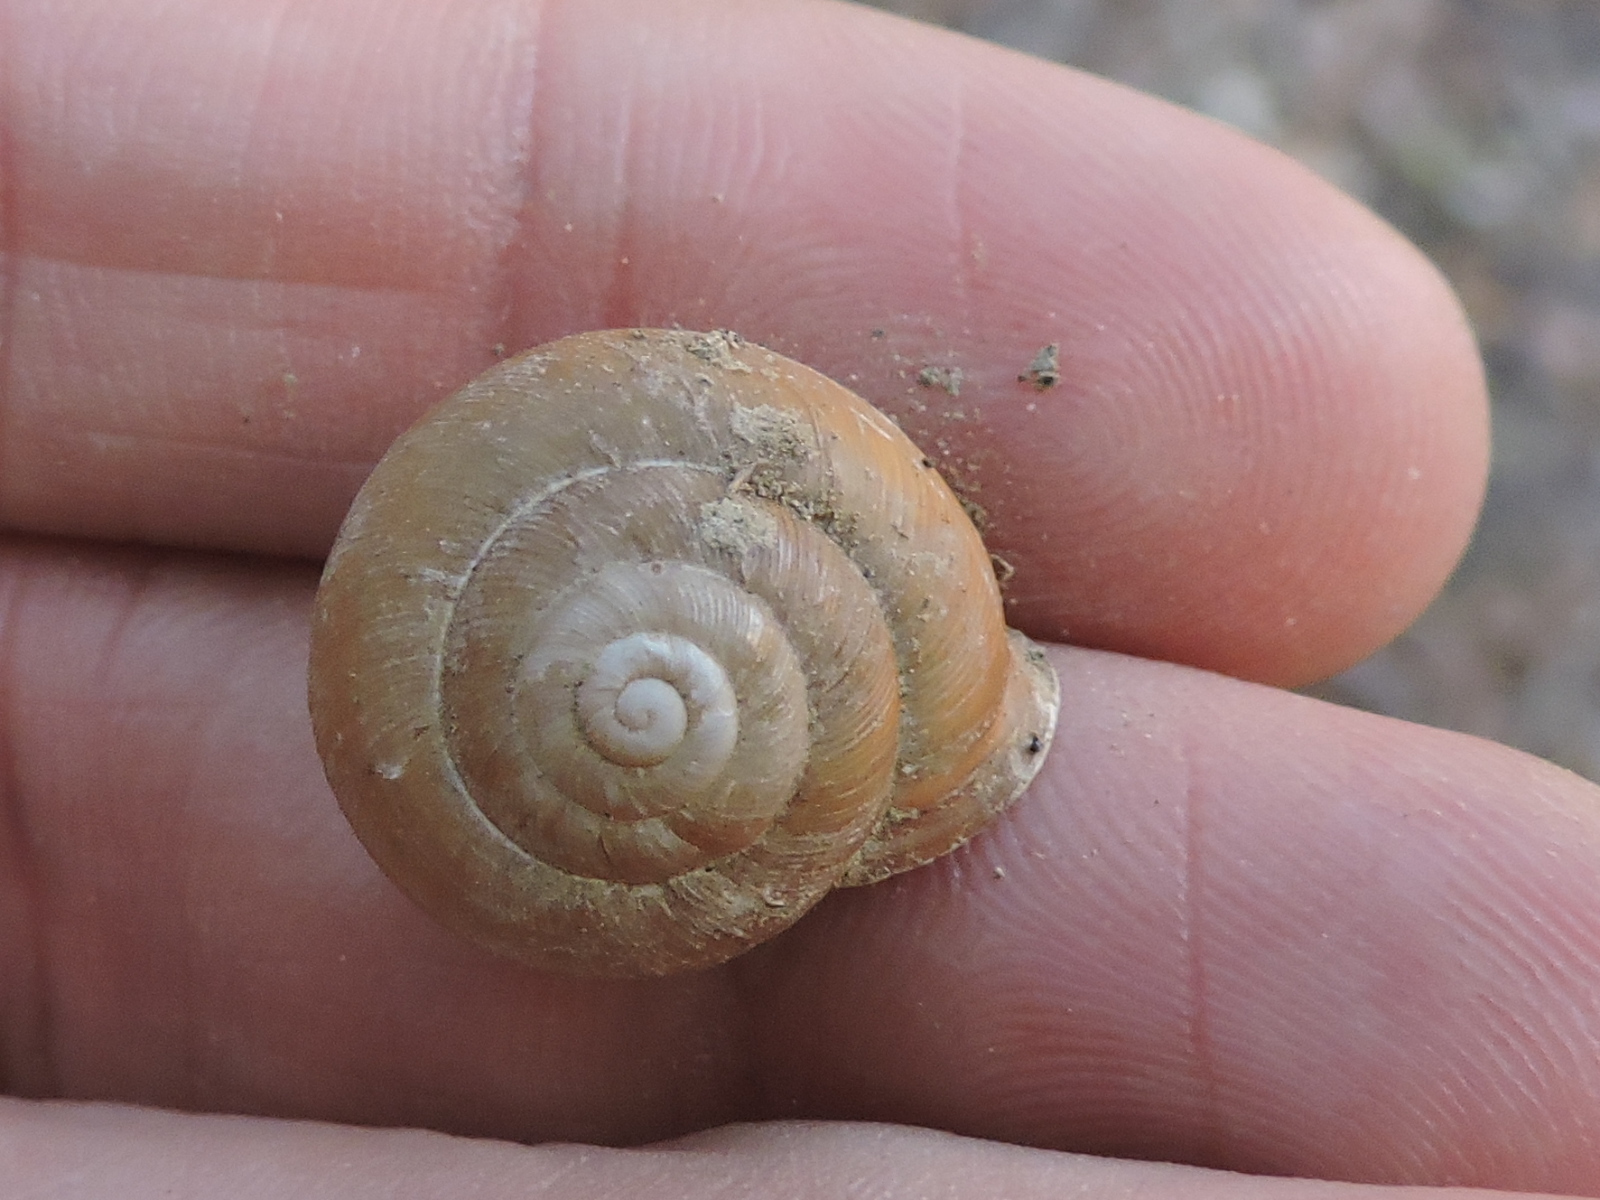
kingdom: Animalia
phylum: Mollusca
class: Gastropoda
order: Stylommatophora
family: Polygyridae
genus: Mesodon
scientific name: Mesodon thyroidus
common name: White-lip globe
